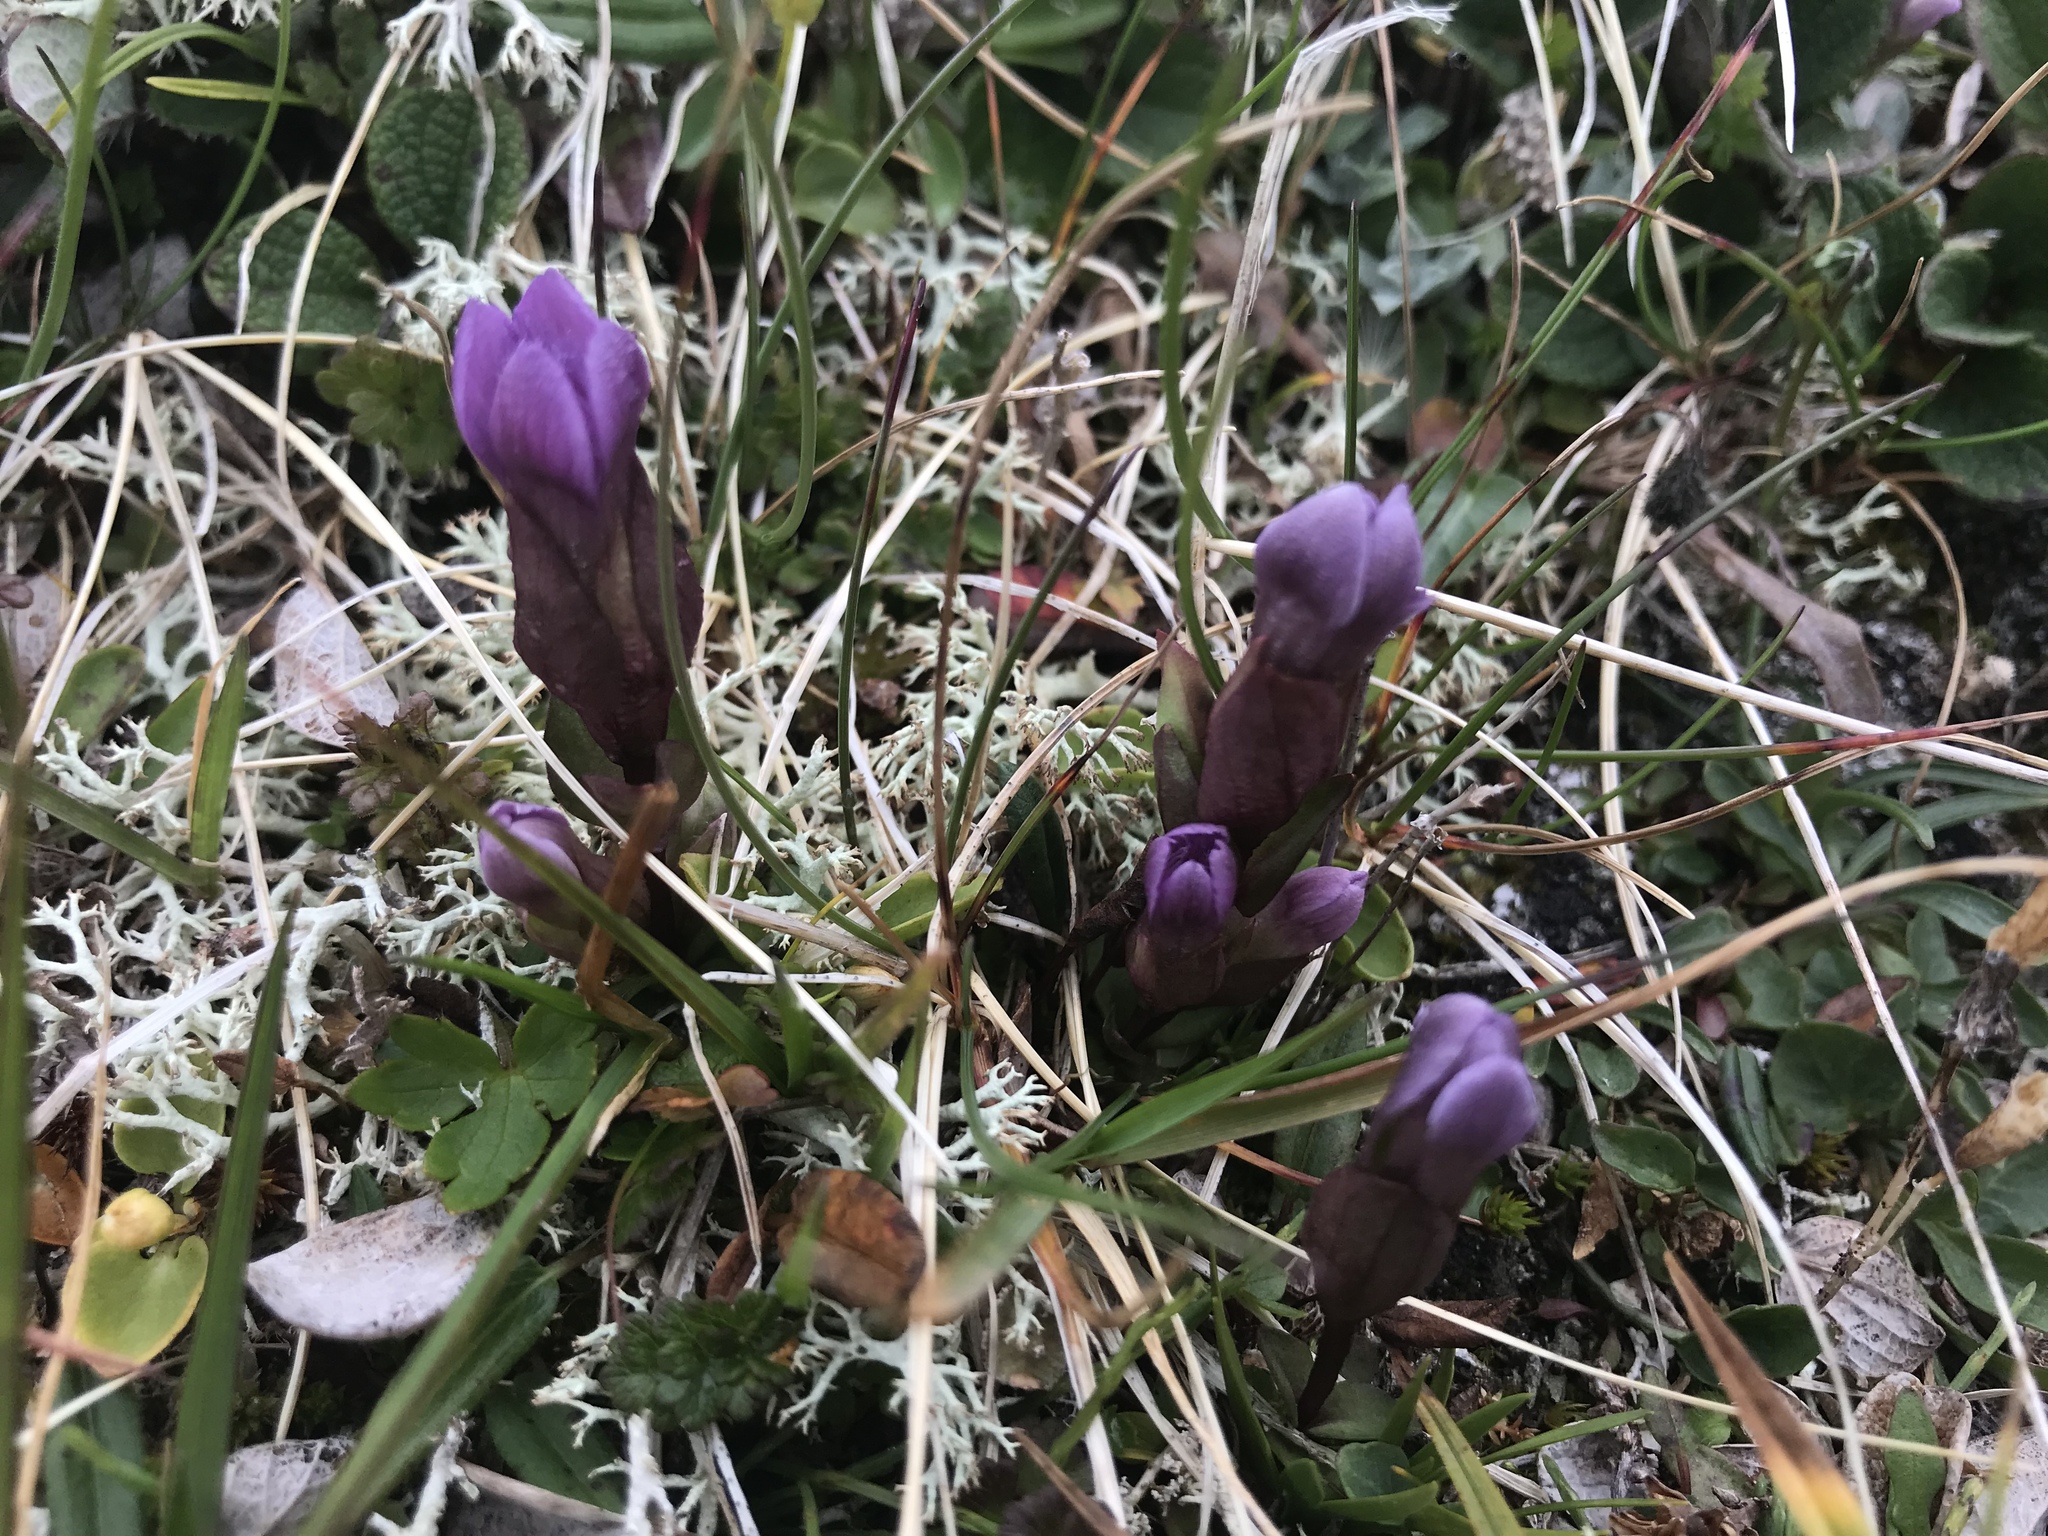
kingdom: Plantae
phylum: Tracheophyta
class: Magnoliopsida
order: Gentianales
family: Gentianaceae
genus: Gentianella
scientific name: Gentianella campestris
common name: Field gentian
